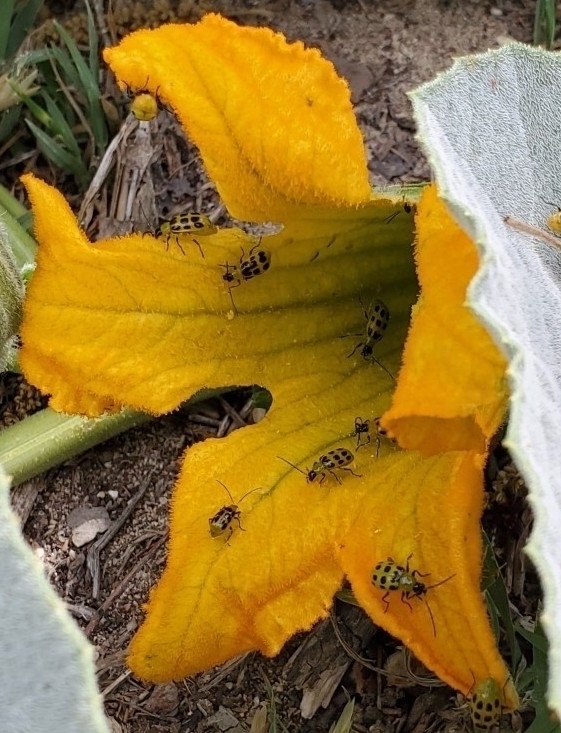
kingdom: Plantae
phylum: Tracheophyta
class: Magnoliopsida
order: Cucurbitales
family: Cucurbitaceae
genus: Cucurbita
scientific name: Cucurbita foetidissima
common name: Buffalo gourd
